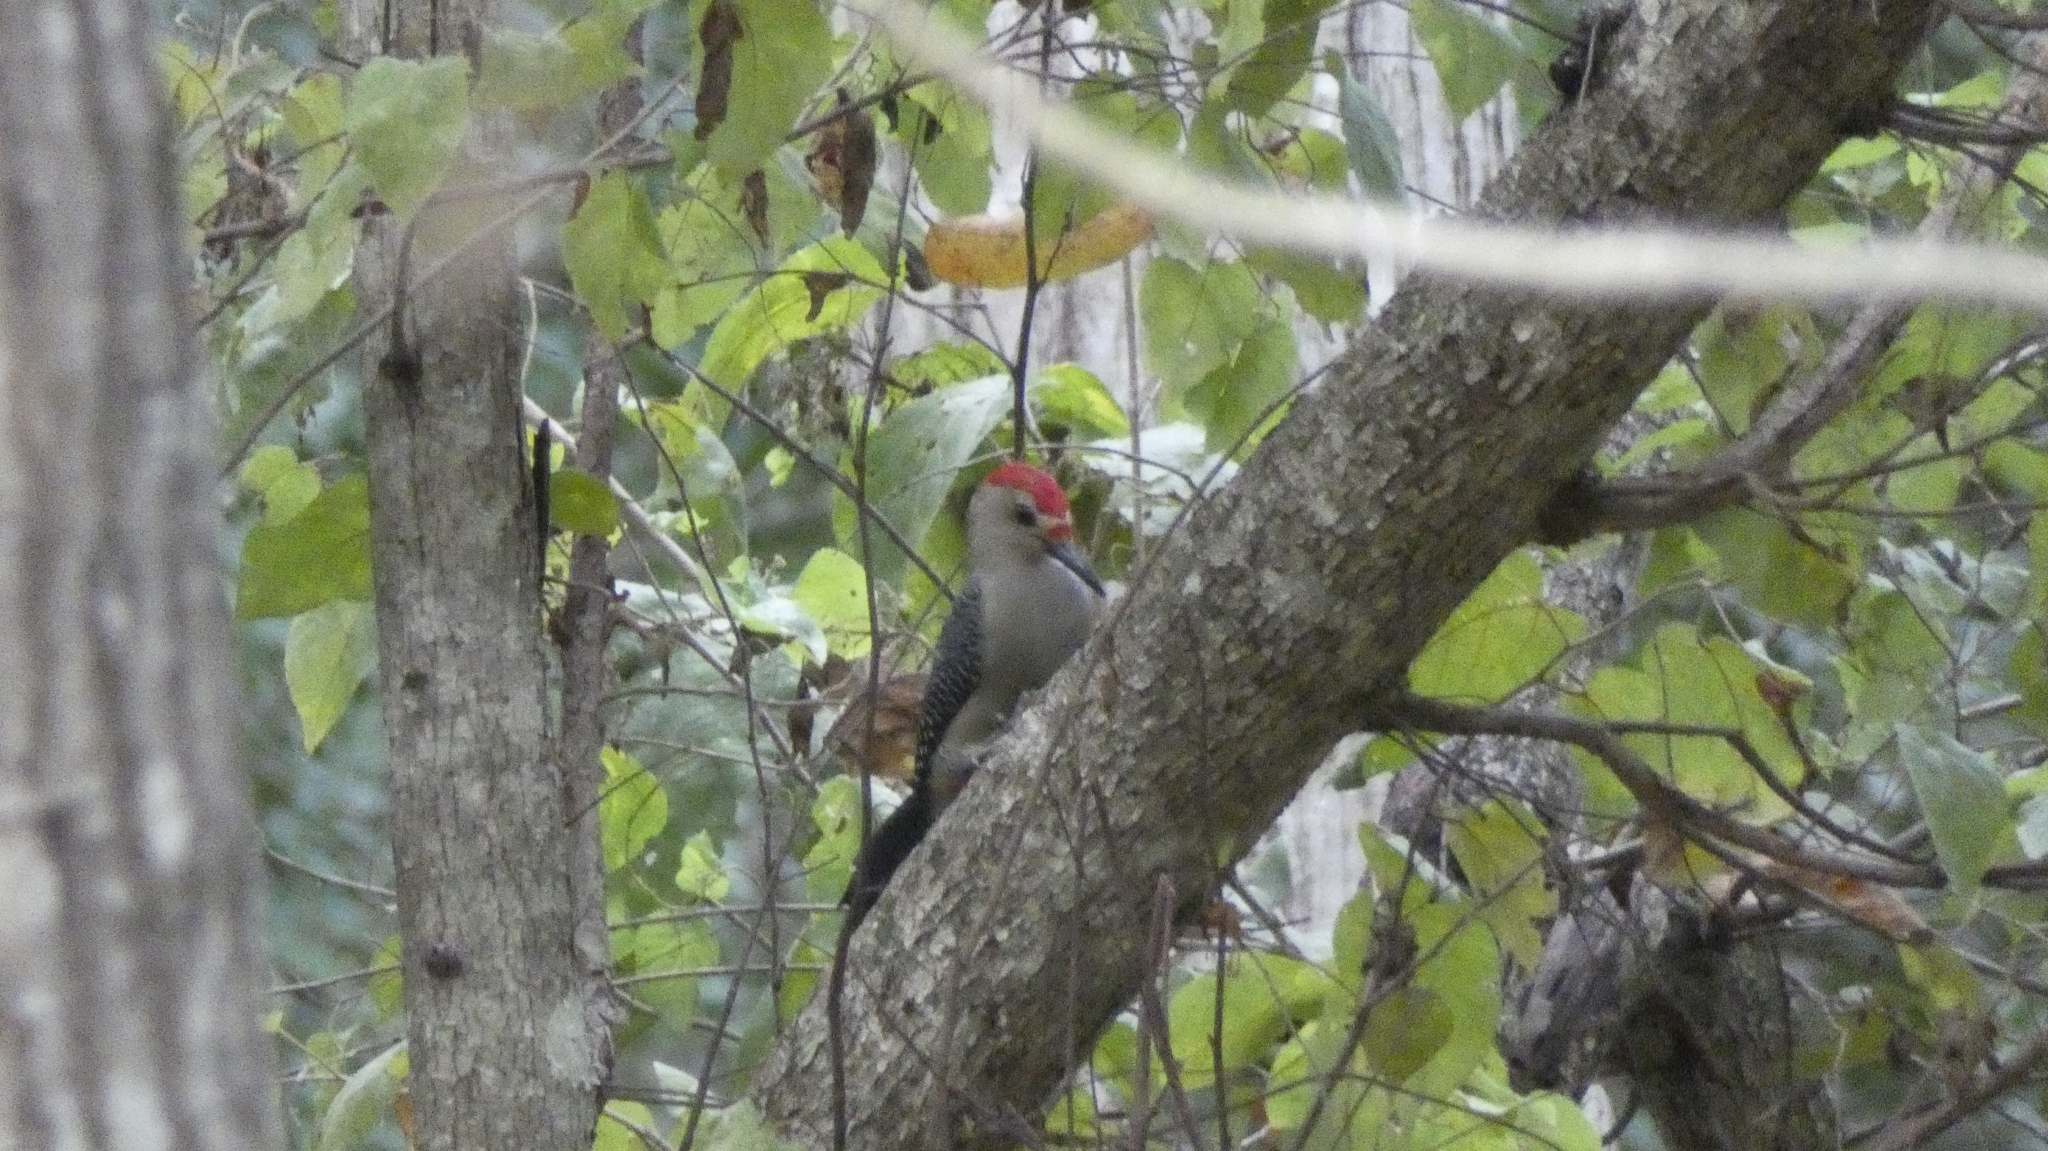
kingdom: Animalia
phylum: Chordata
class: Aves
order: Piciformes
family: Picidae
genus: Melanerpes
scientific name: Melanerpes aurifrons
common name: Golden-fronted woodpecker
